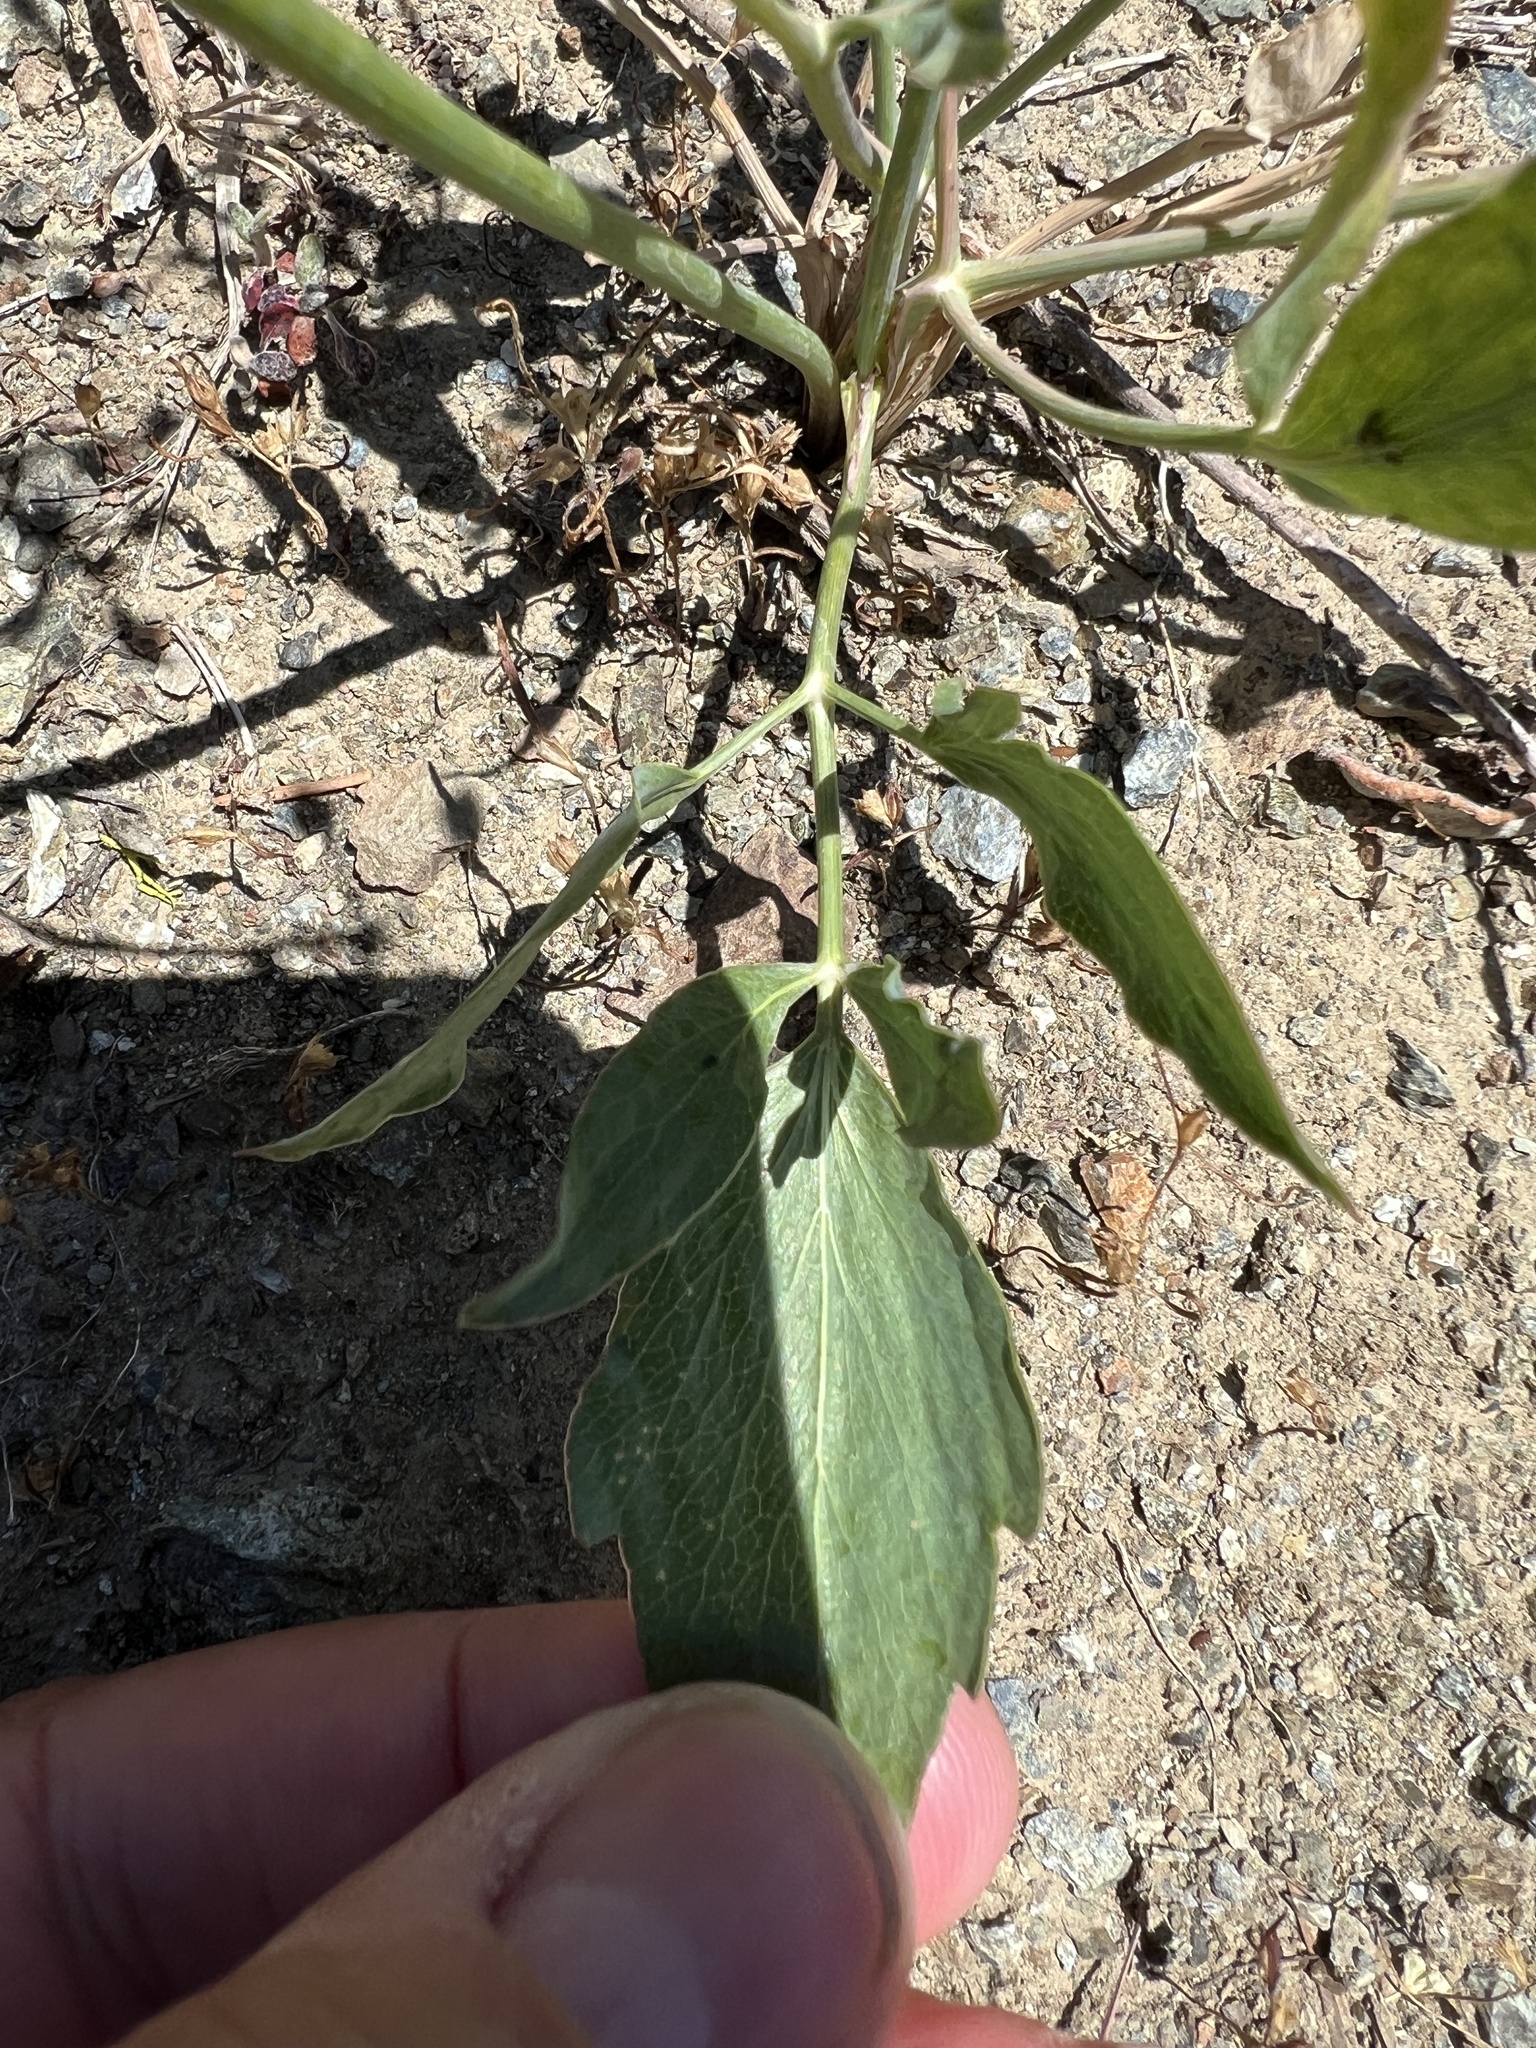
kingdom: Plantae
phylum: Tracheophyta
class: Magnoliopsida
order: Apiales
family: Apiaceae
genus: Lomatium
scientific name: Lomatium nudicaule
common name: Pestle lomatium
